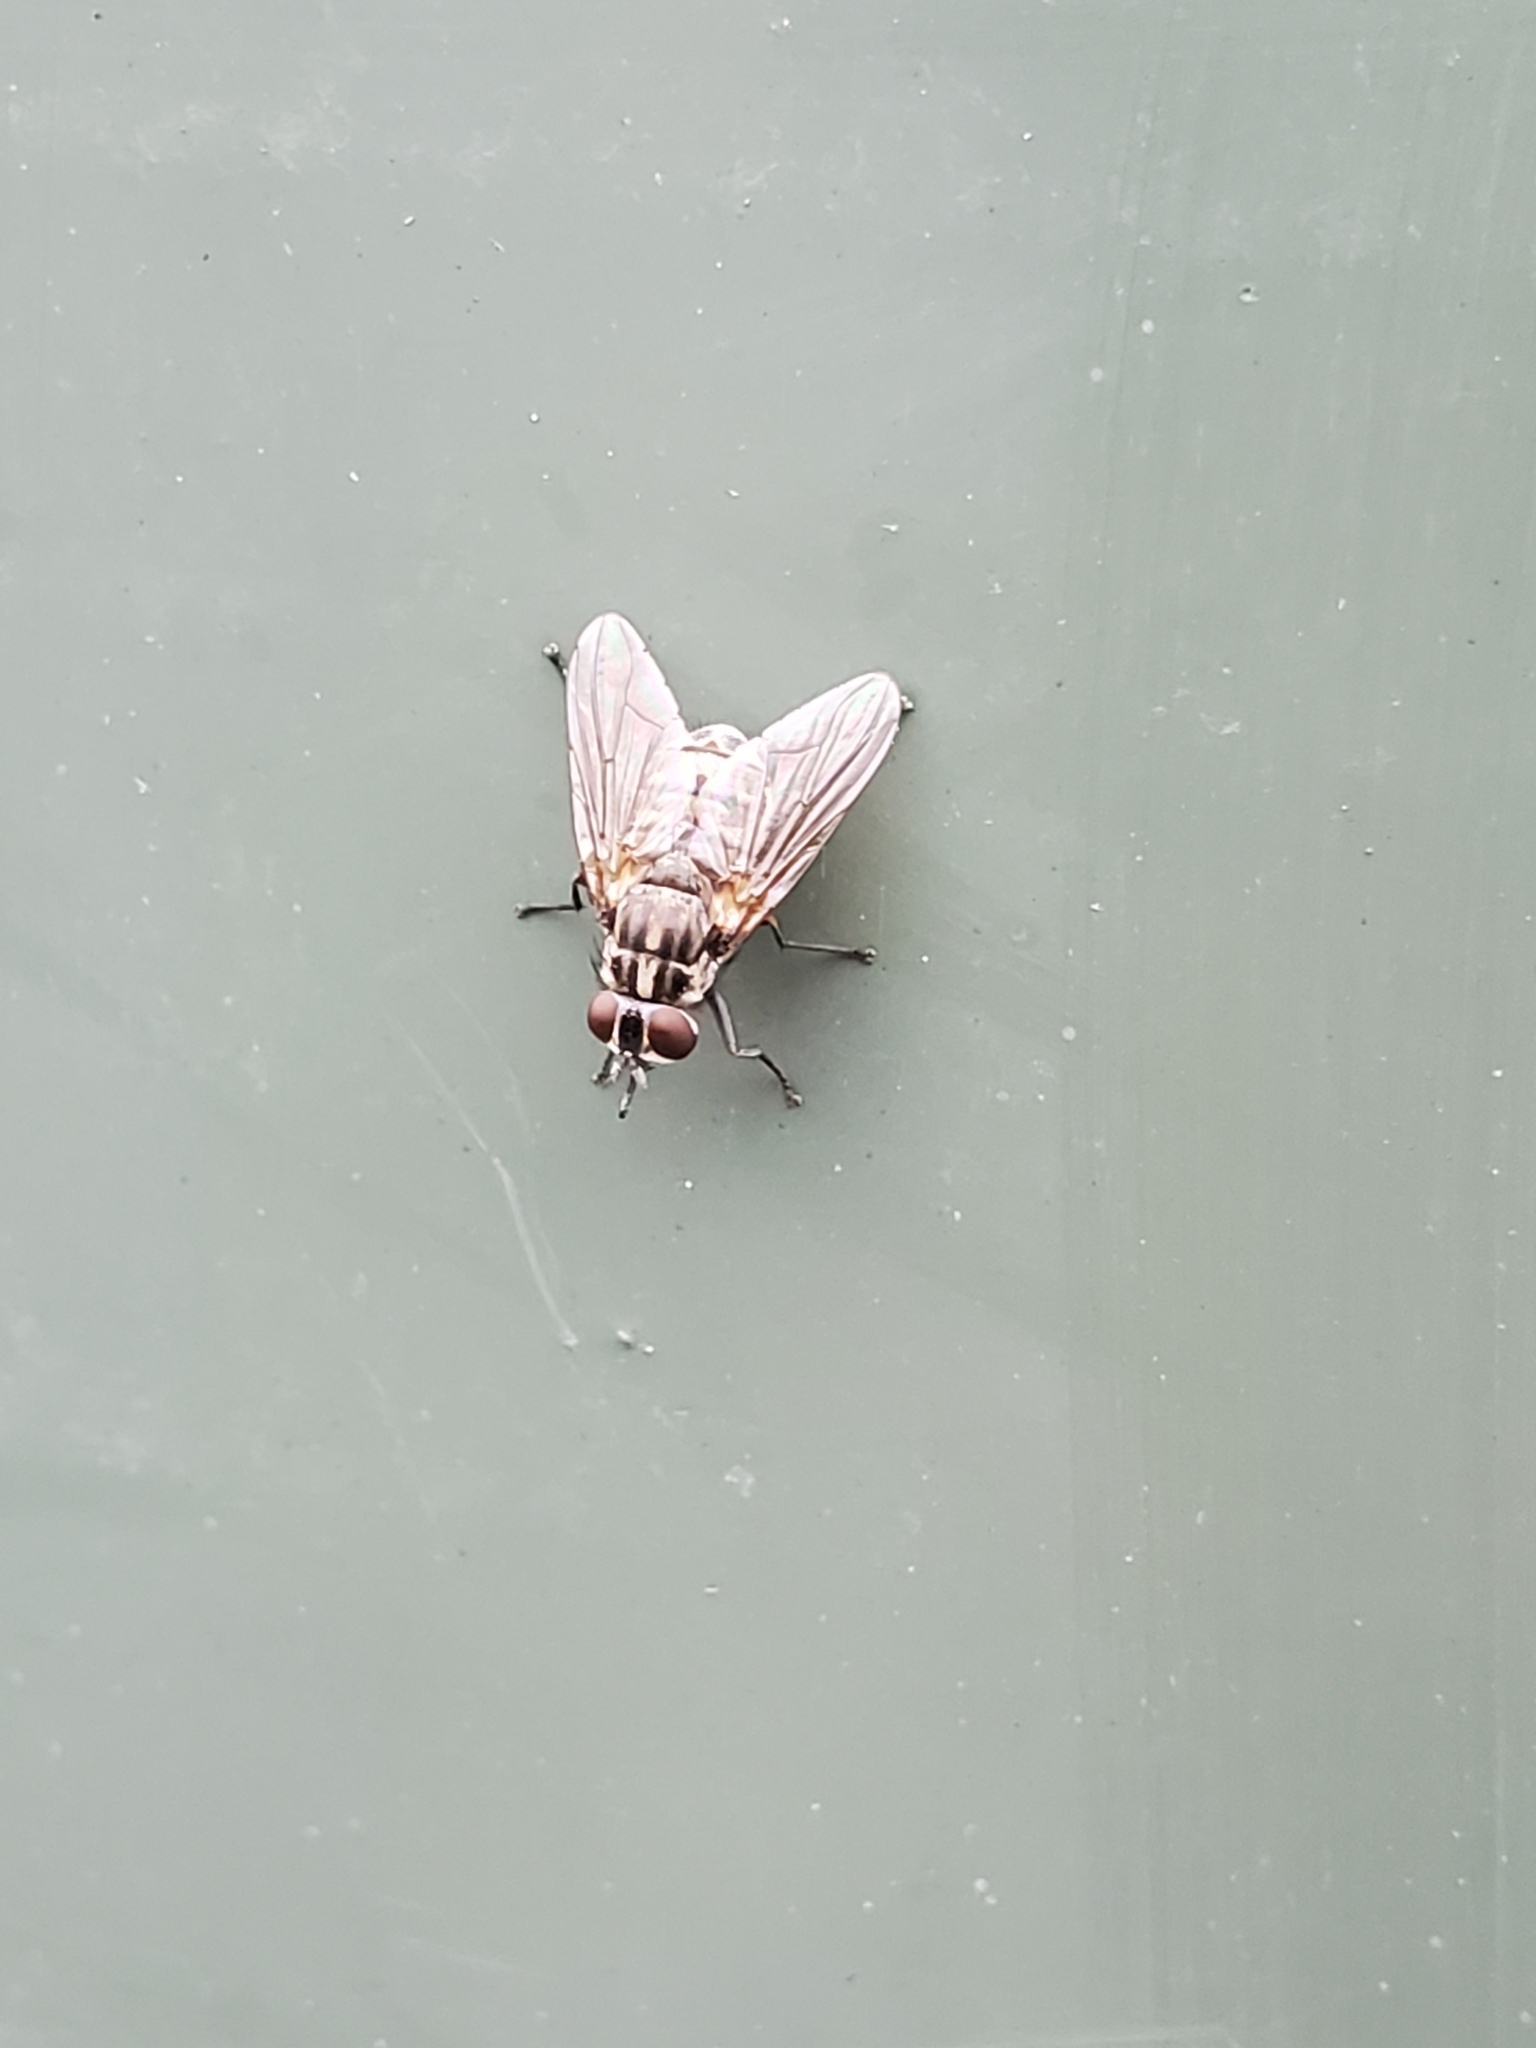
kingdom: Animalia
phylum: Arthropoda
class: Insecta
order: Diptera
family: Muscidae
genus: Stomoxys
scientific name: Stomoxys calcitrans
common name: Stable fly
